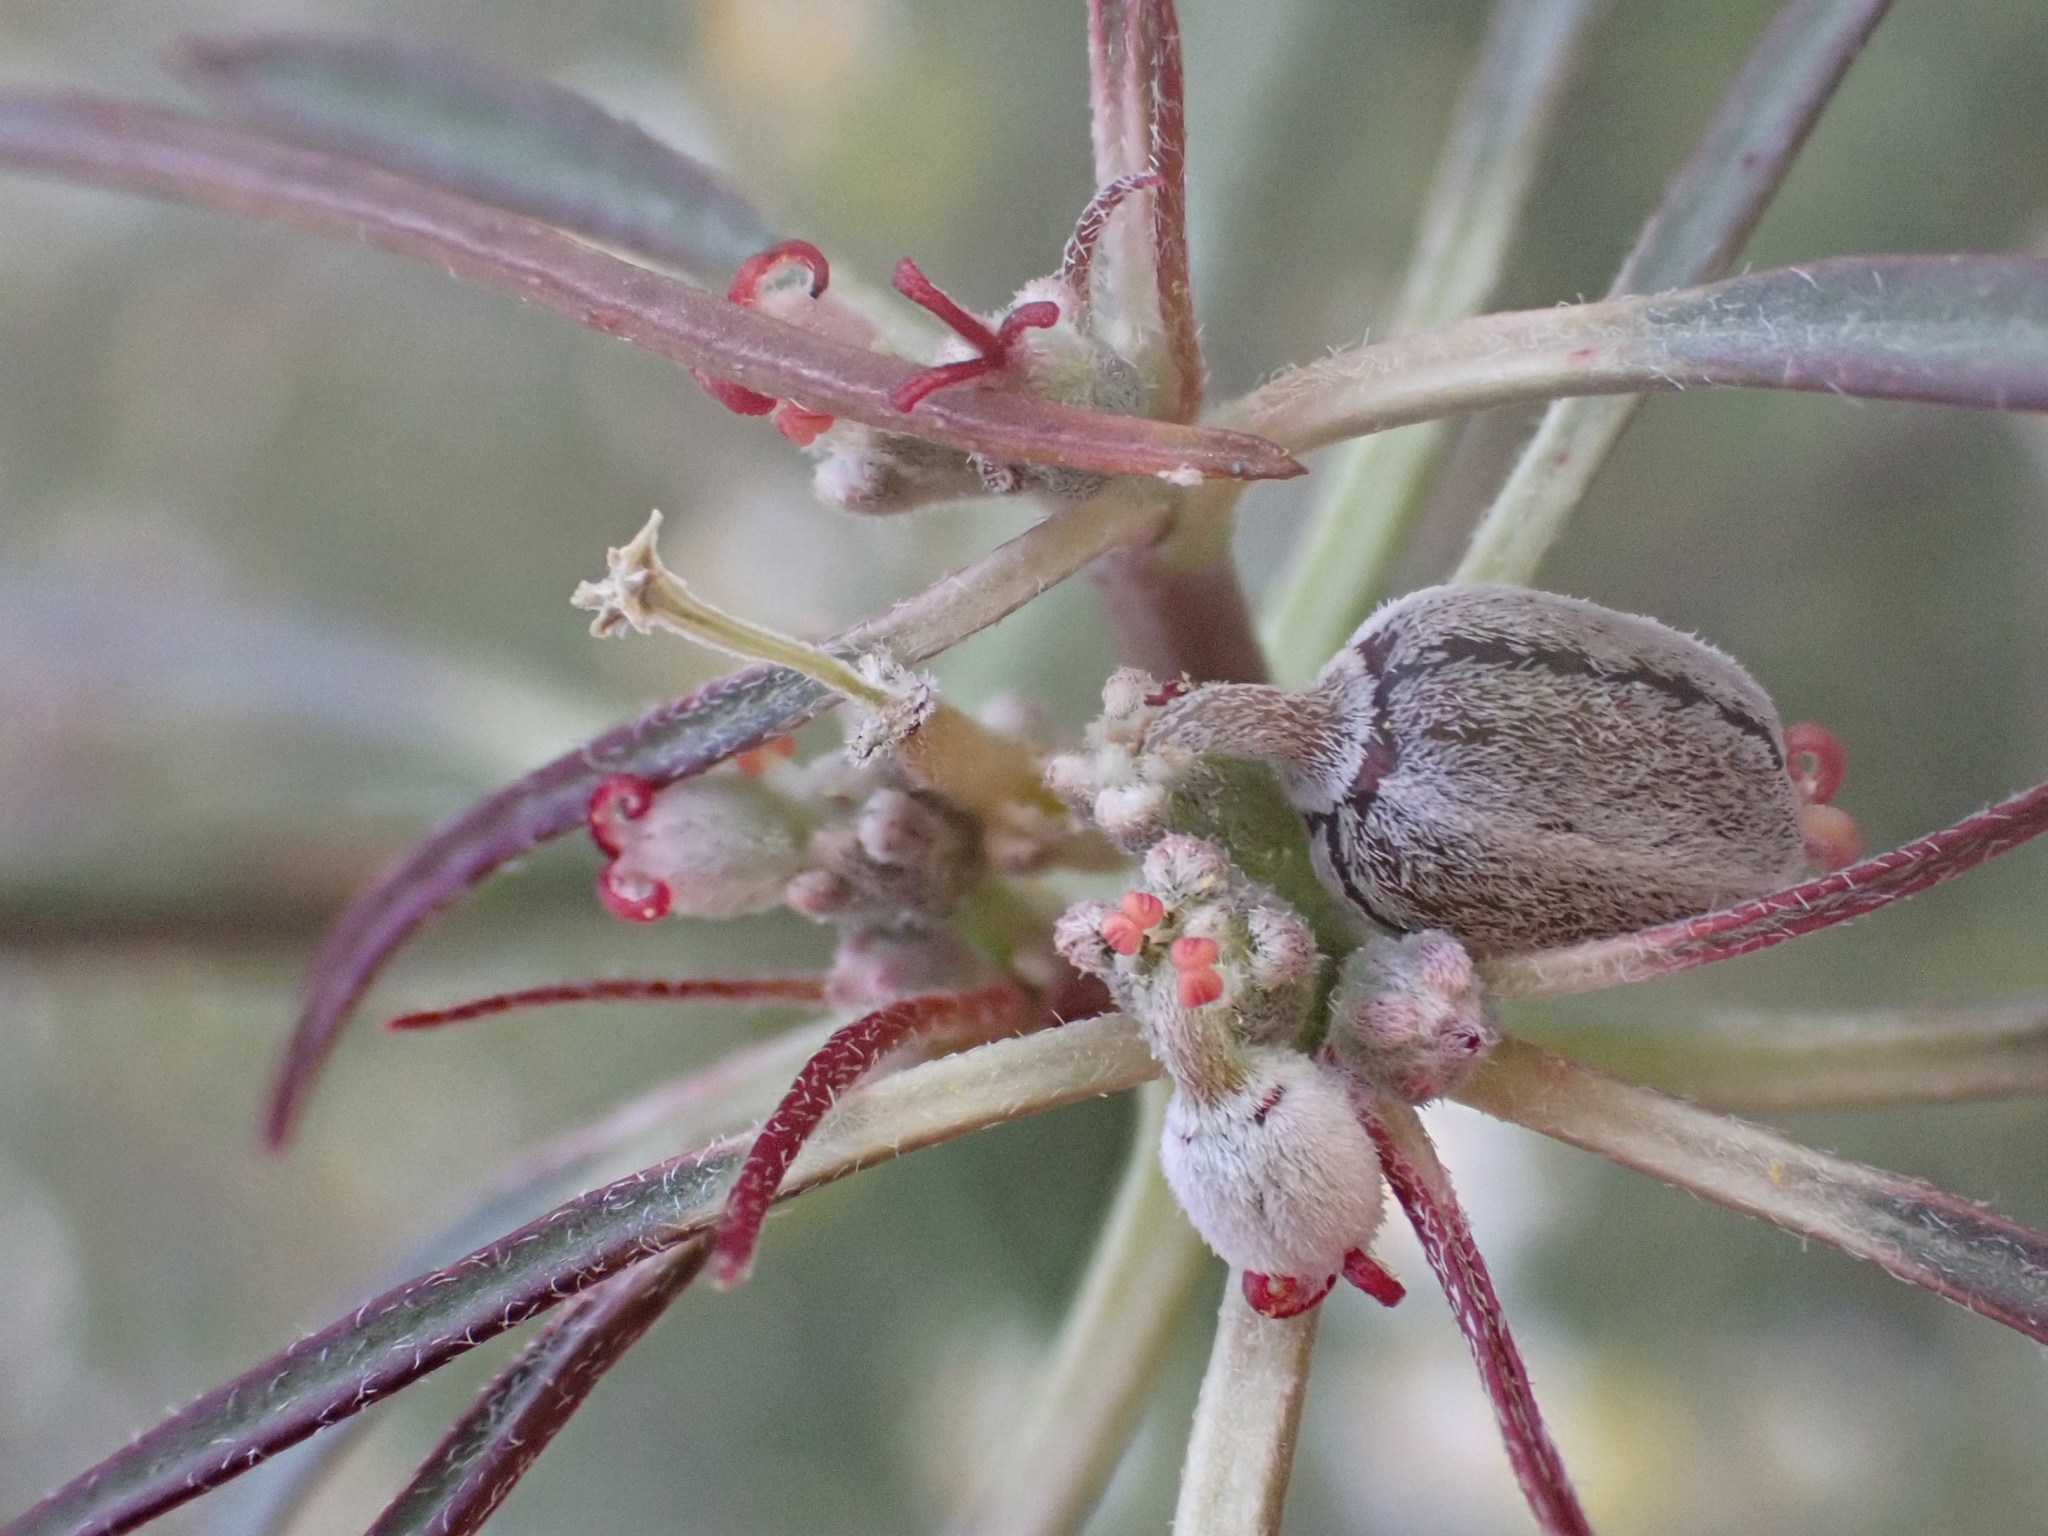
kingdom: Plantae
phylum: Tracheophyta
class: Magnoliopsida
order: Malpighiales
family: Euphorbiaceae
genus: Euphorbia
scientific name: Euphorbia eriantha
